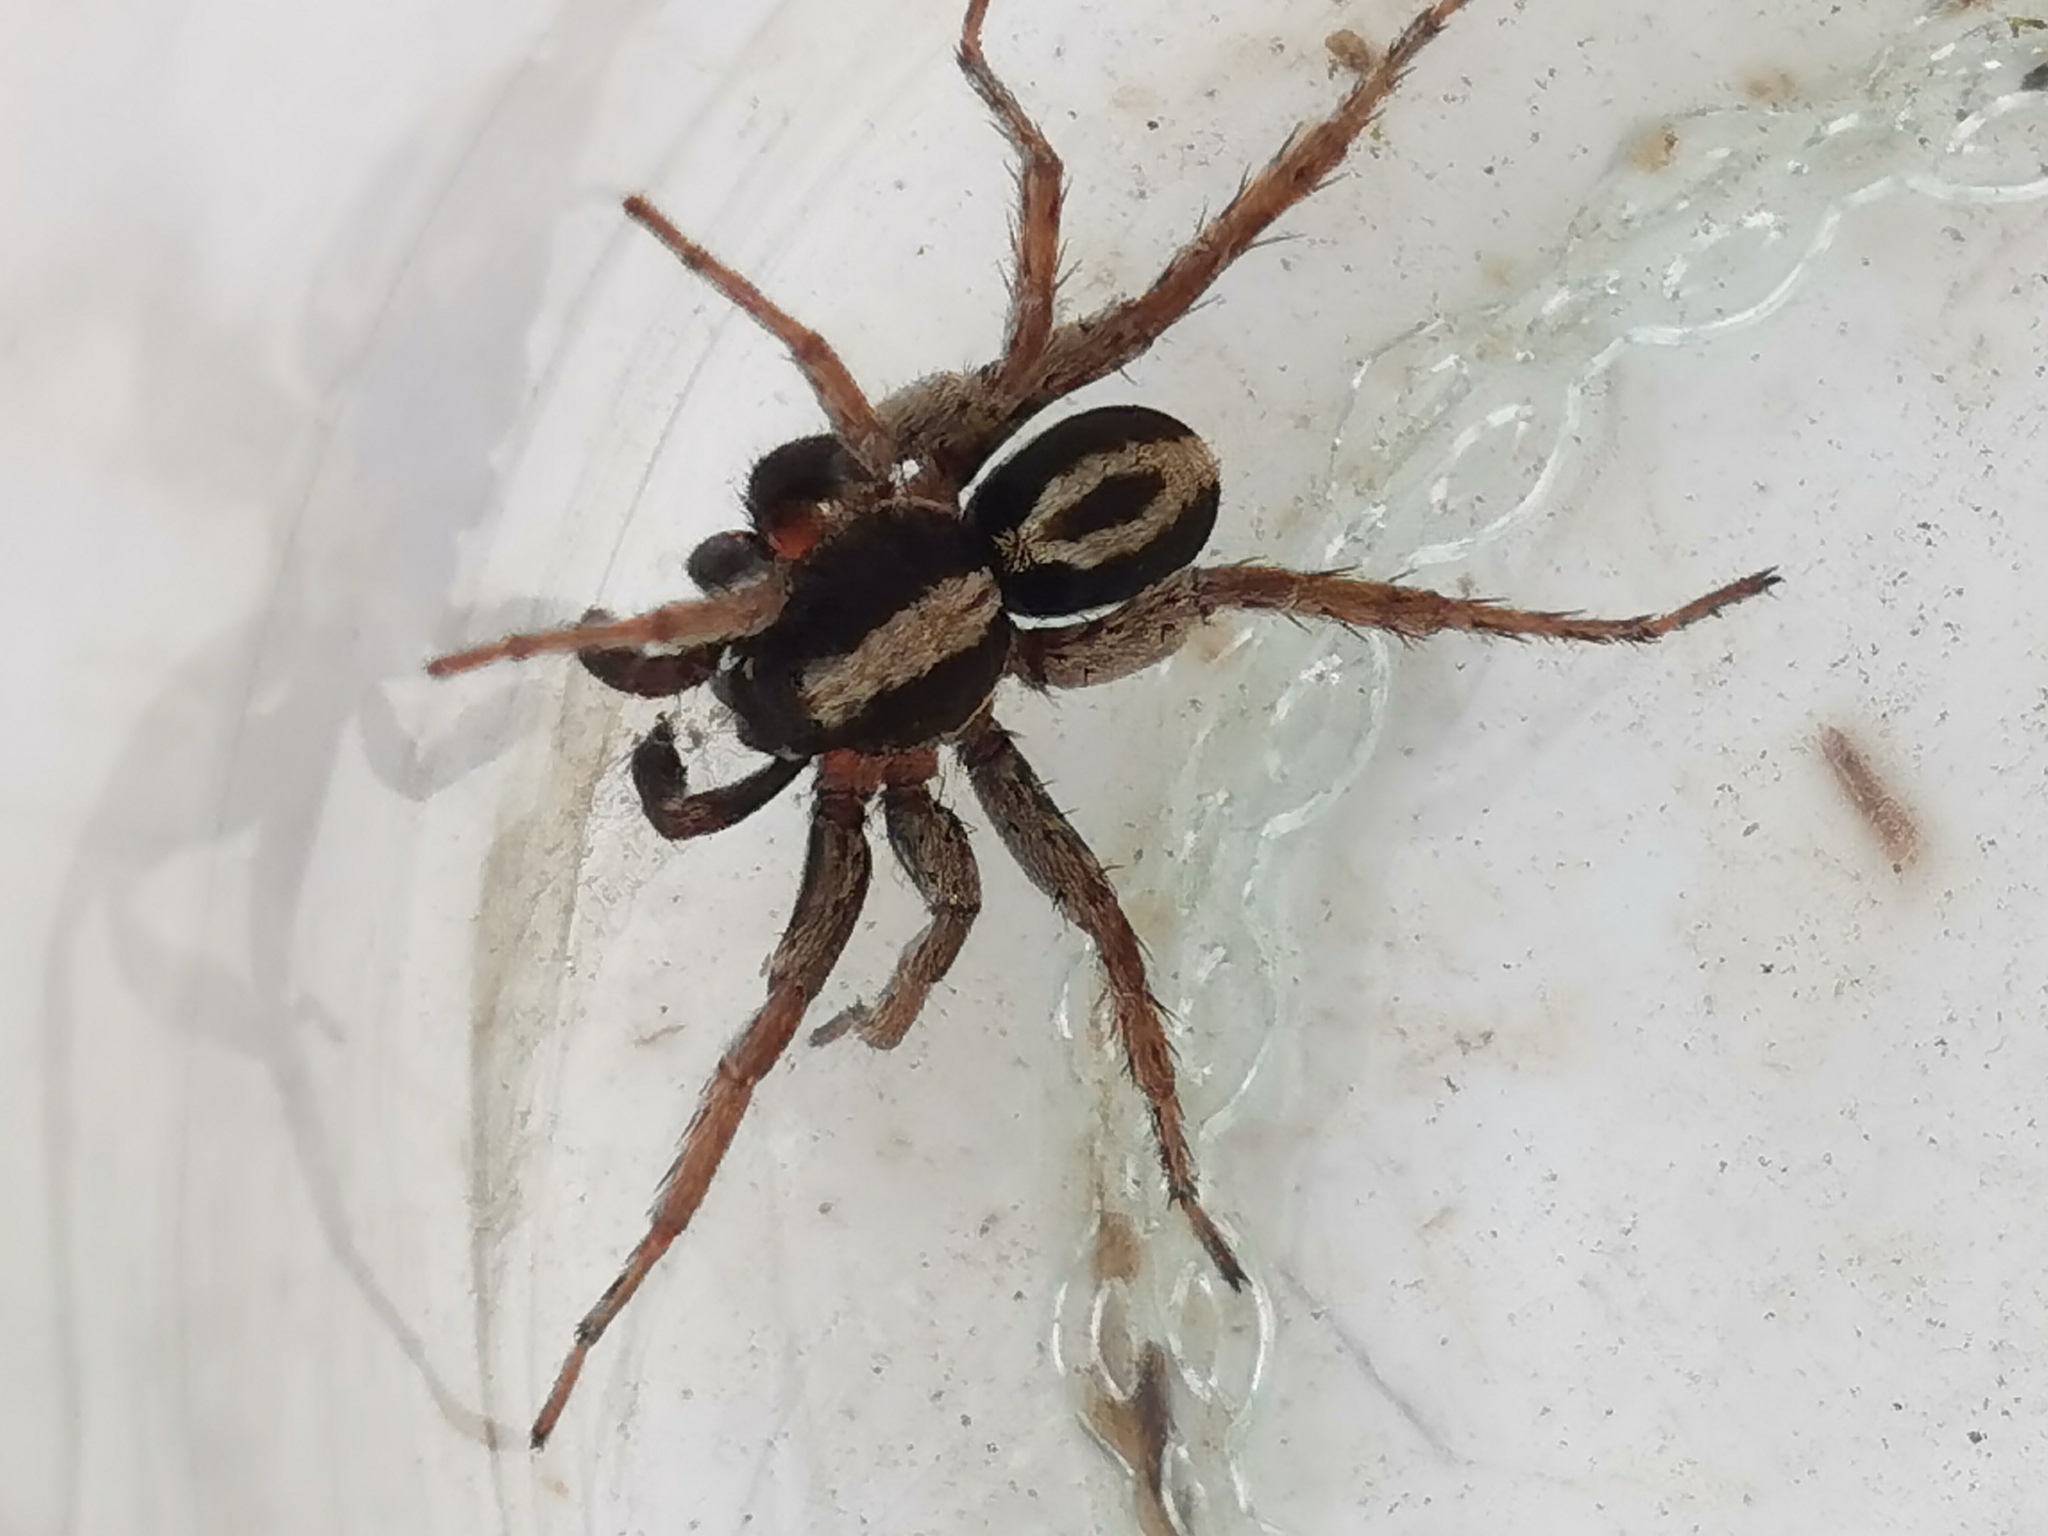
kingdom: Animalia
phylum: Arthropoda
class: Arachnida
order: Araneae
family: Lycosidae
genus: Alopecosa
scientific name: Alopecosa albofasciata
